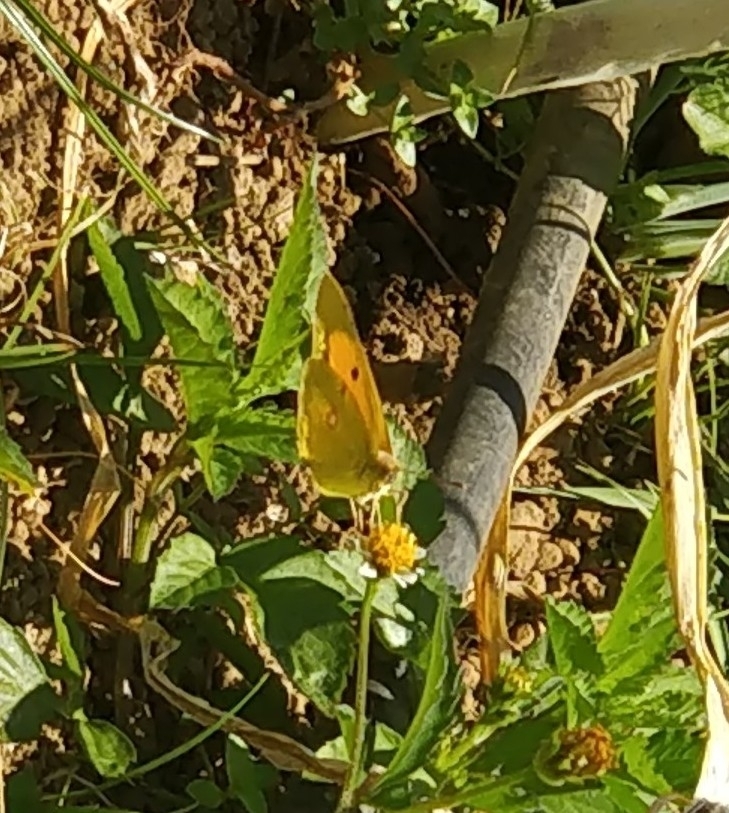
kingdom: Animalia
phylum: Arthropoda
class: Insecta
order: Lepidoptera
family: Pieridae
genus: Colias
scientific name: Colias croceus
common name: Clouded yellow
